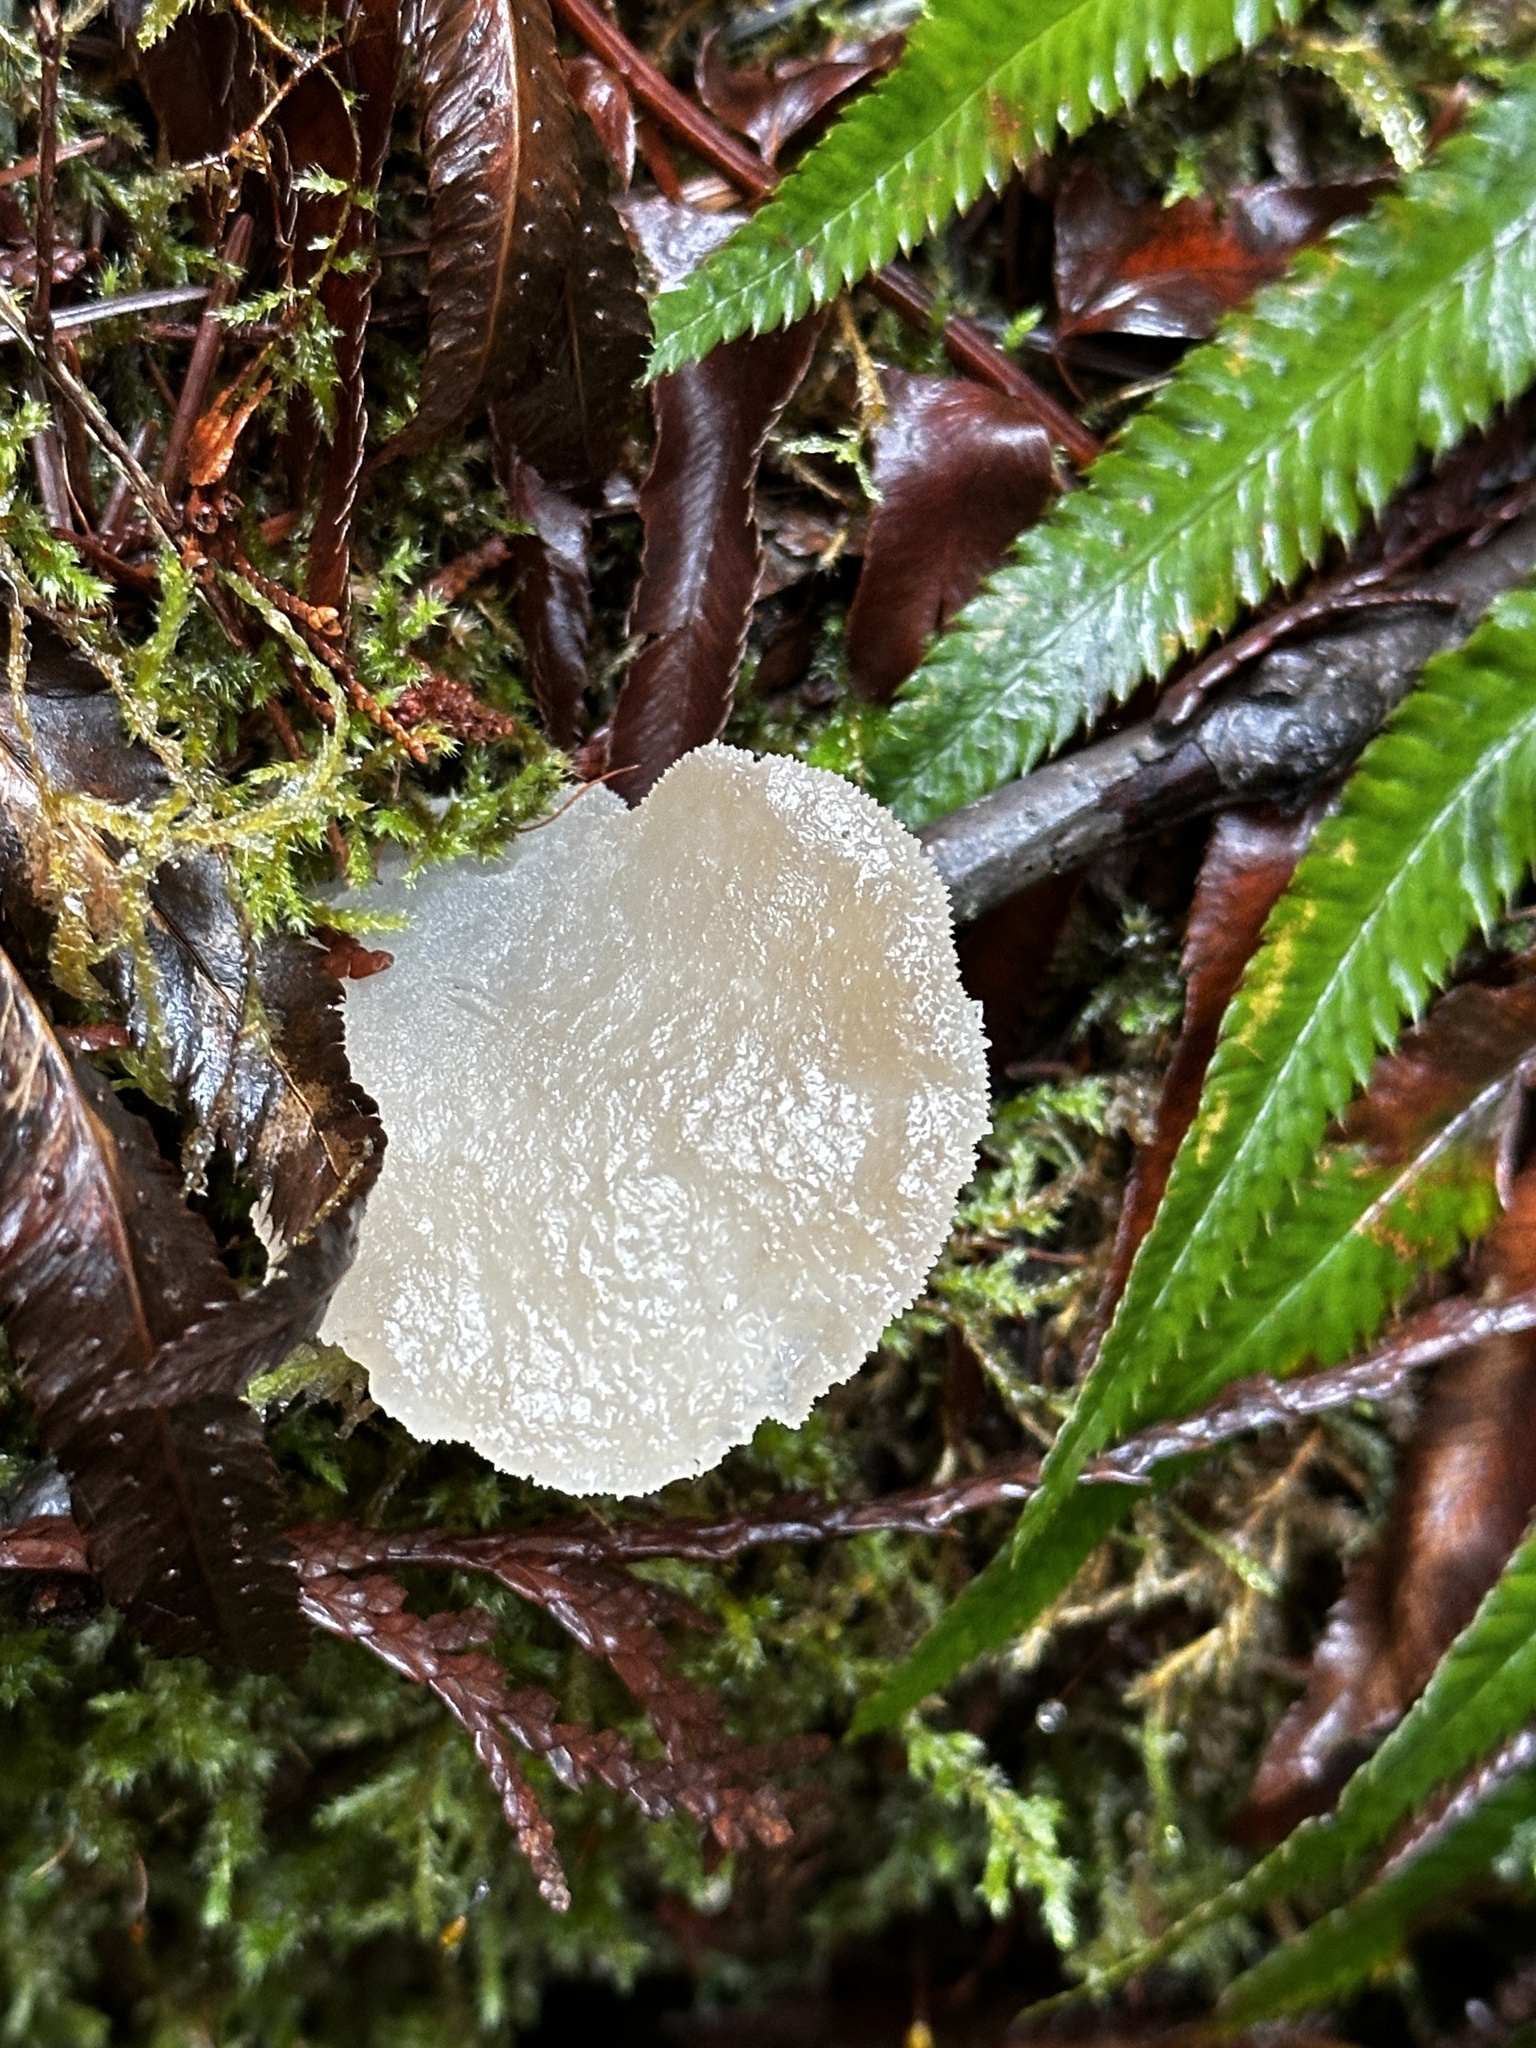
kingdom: Fungi
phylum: Basidiomycota
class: Agaricomycetes
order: Auriculariales
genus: Pseudohydnum
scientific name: Pseudohydnum gelatinosum
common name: Jelly tongue
